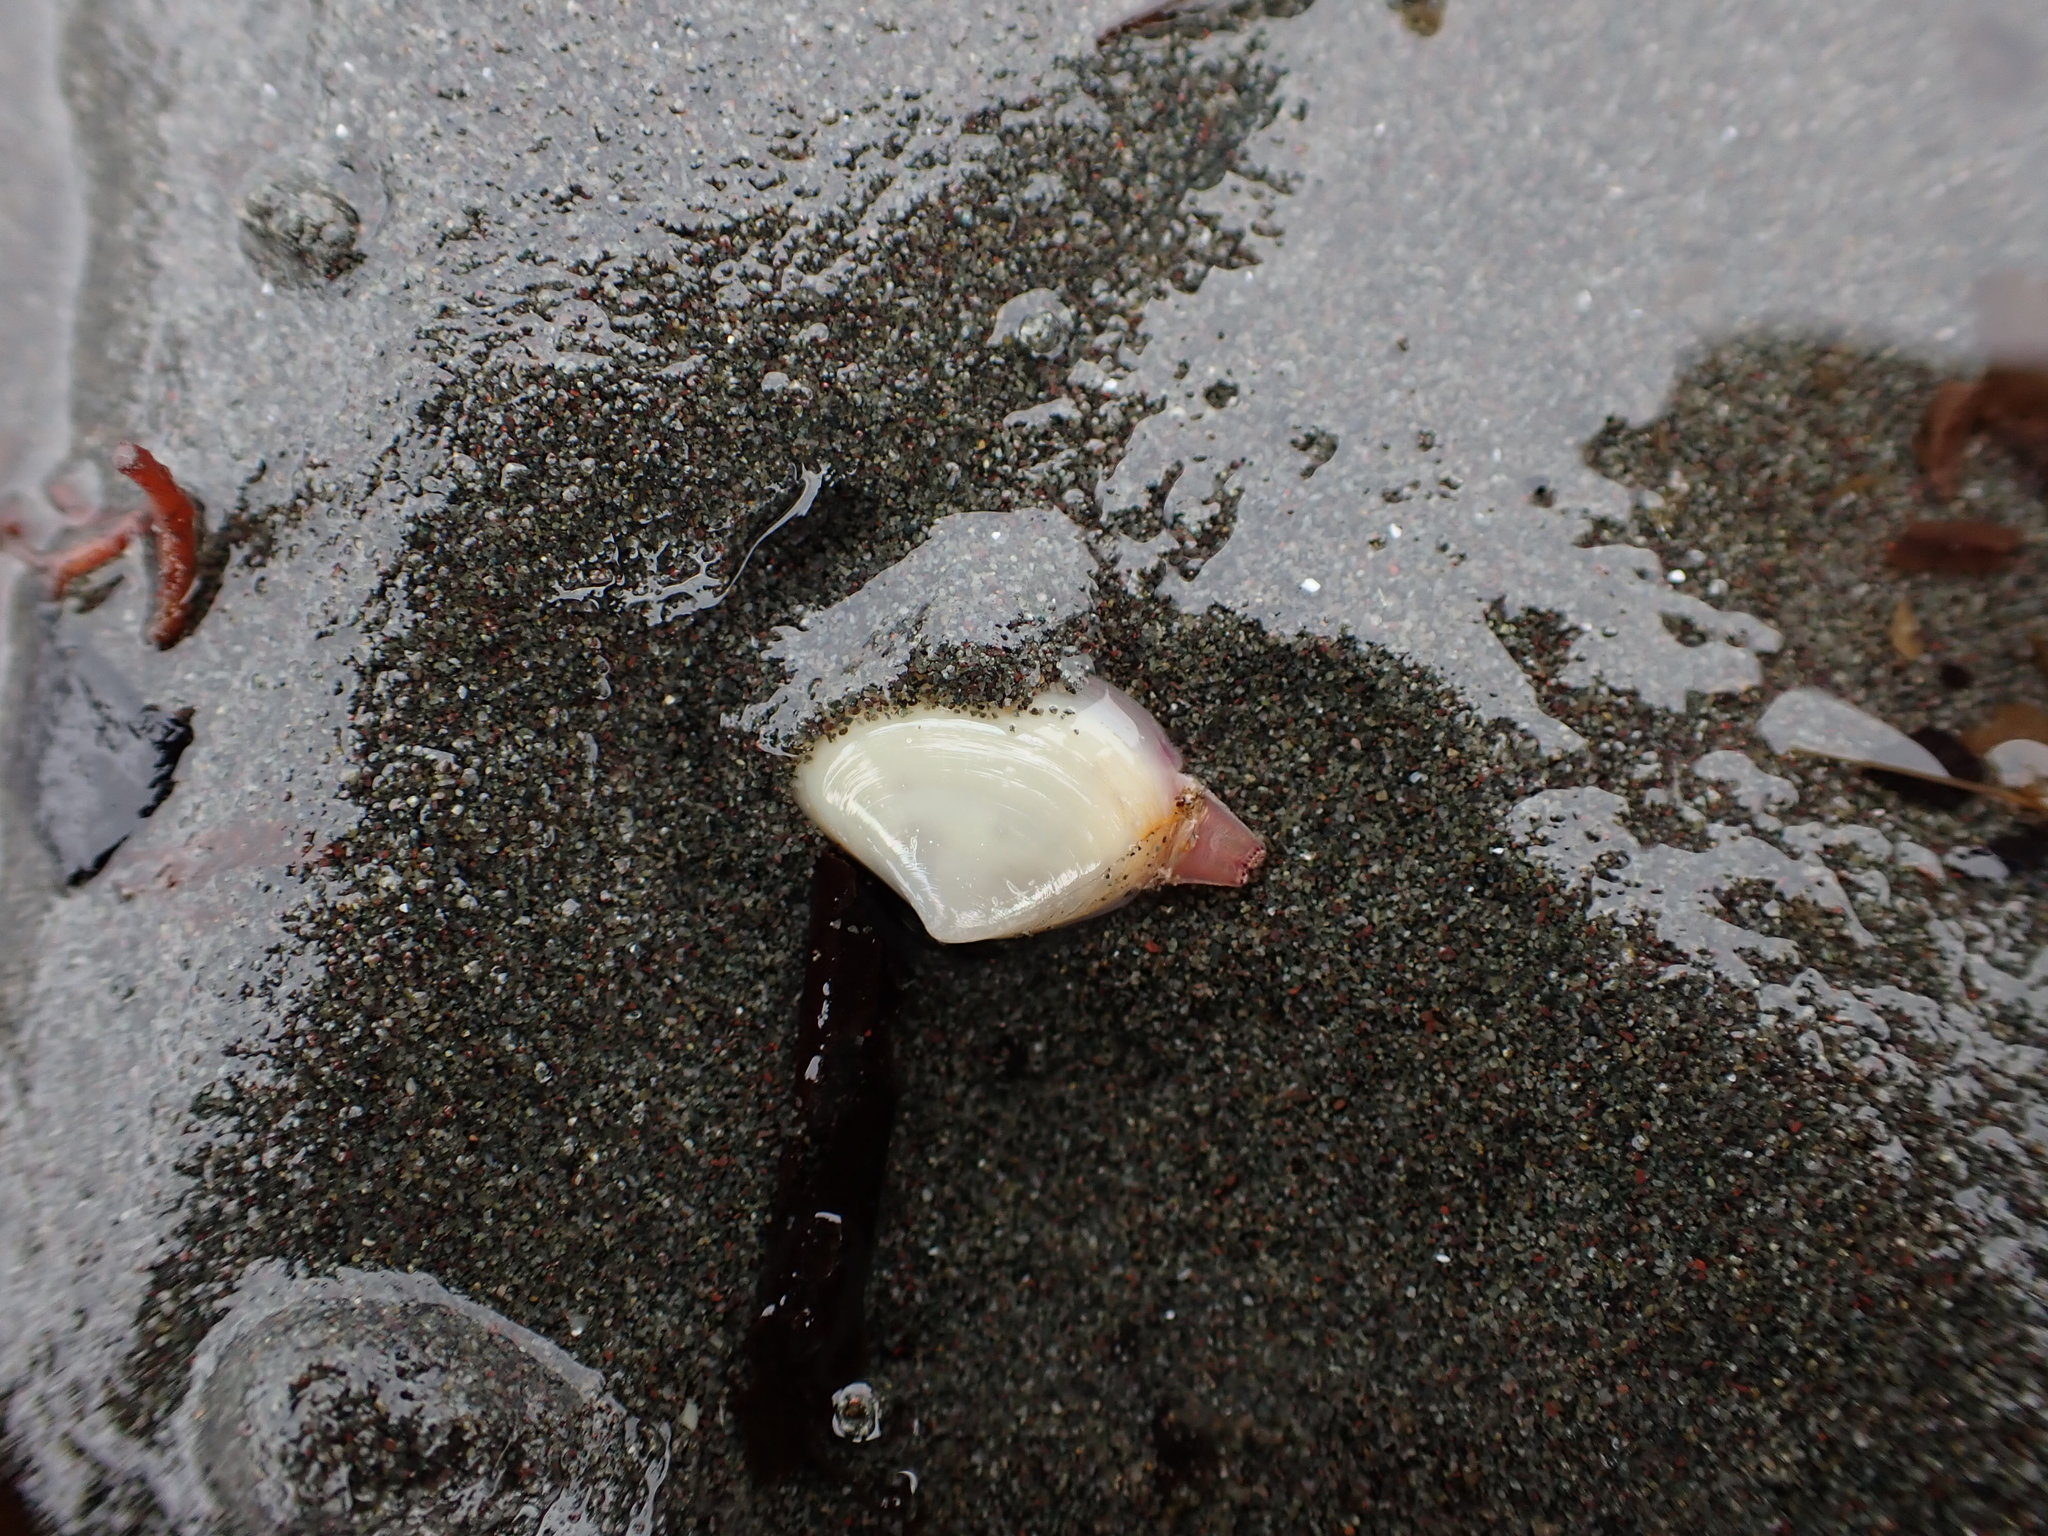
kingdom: Animalia
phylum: Mollusca
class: Bivalvia
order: Venerida
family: Mactridae
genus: Simomactra
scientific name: Simomactra falcata
